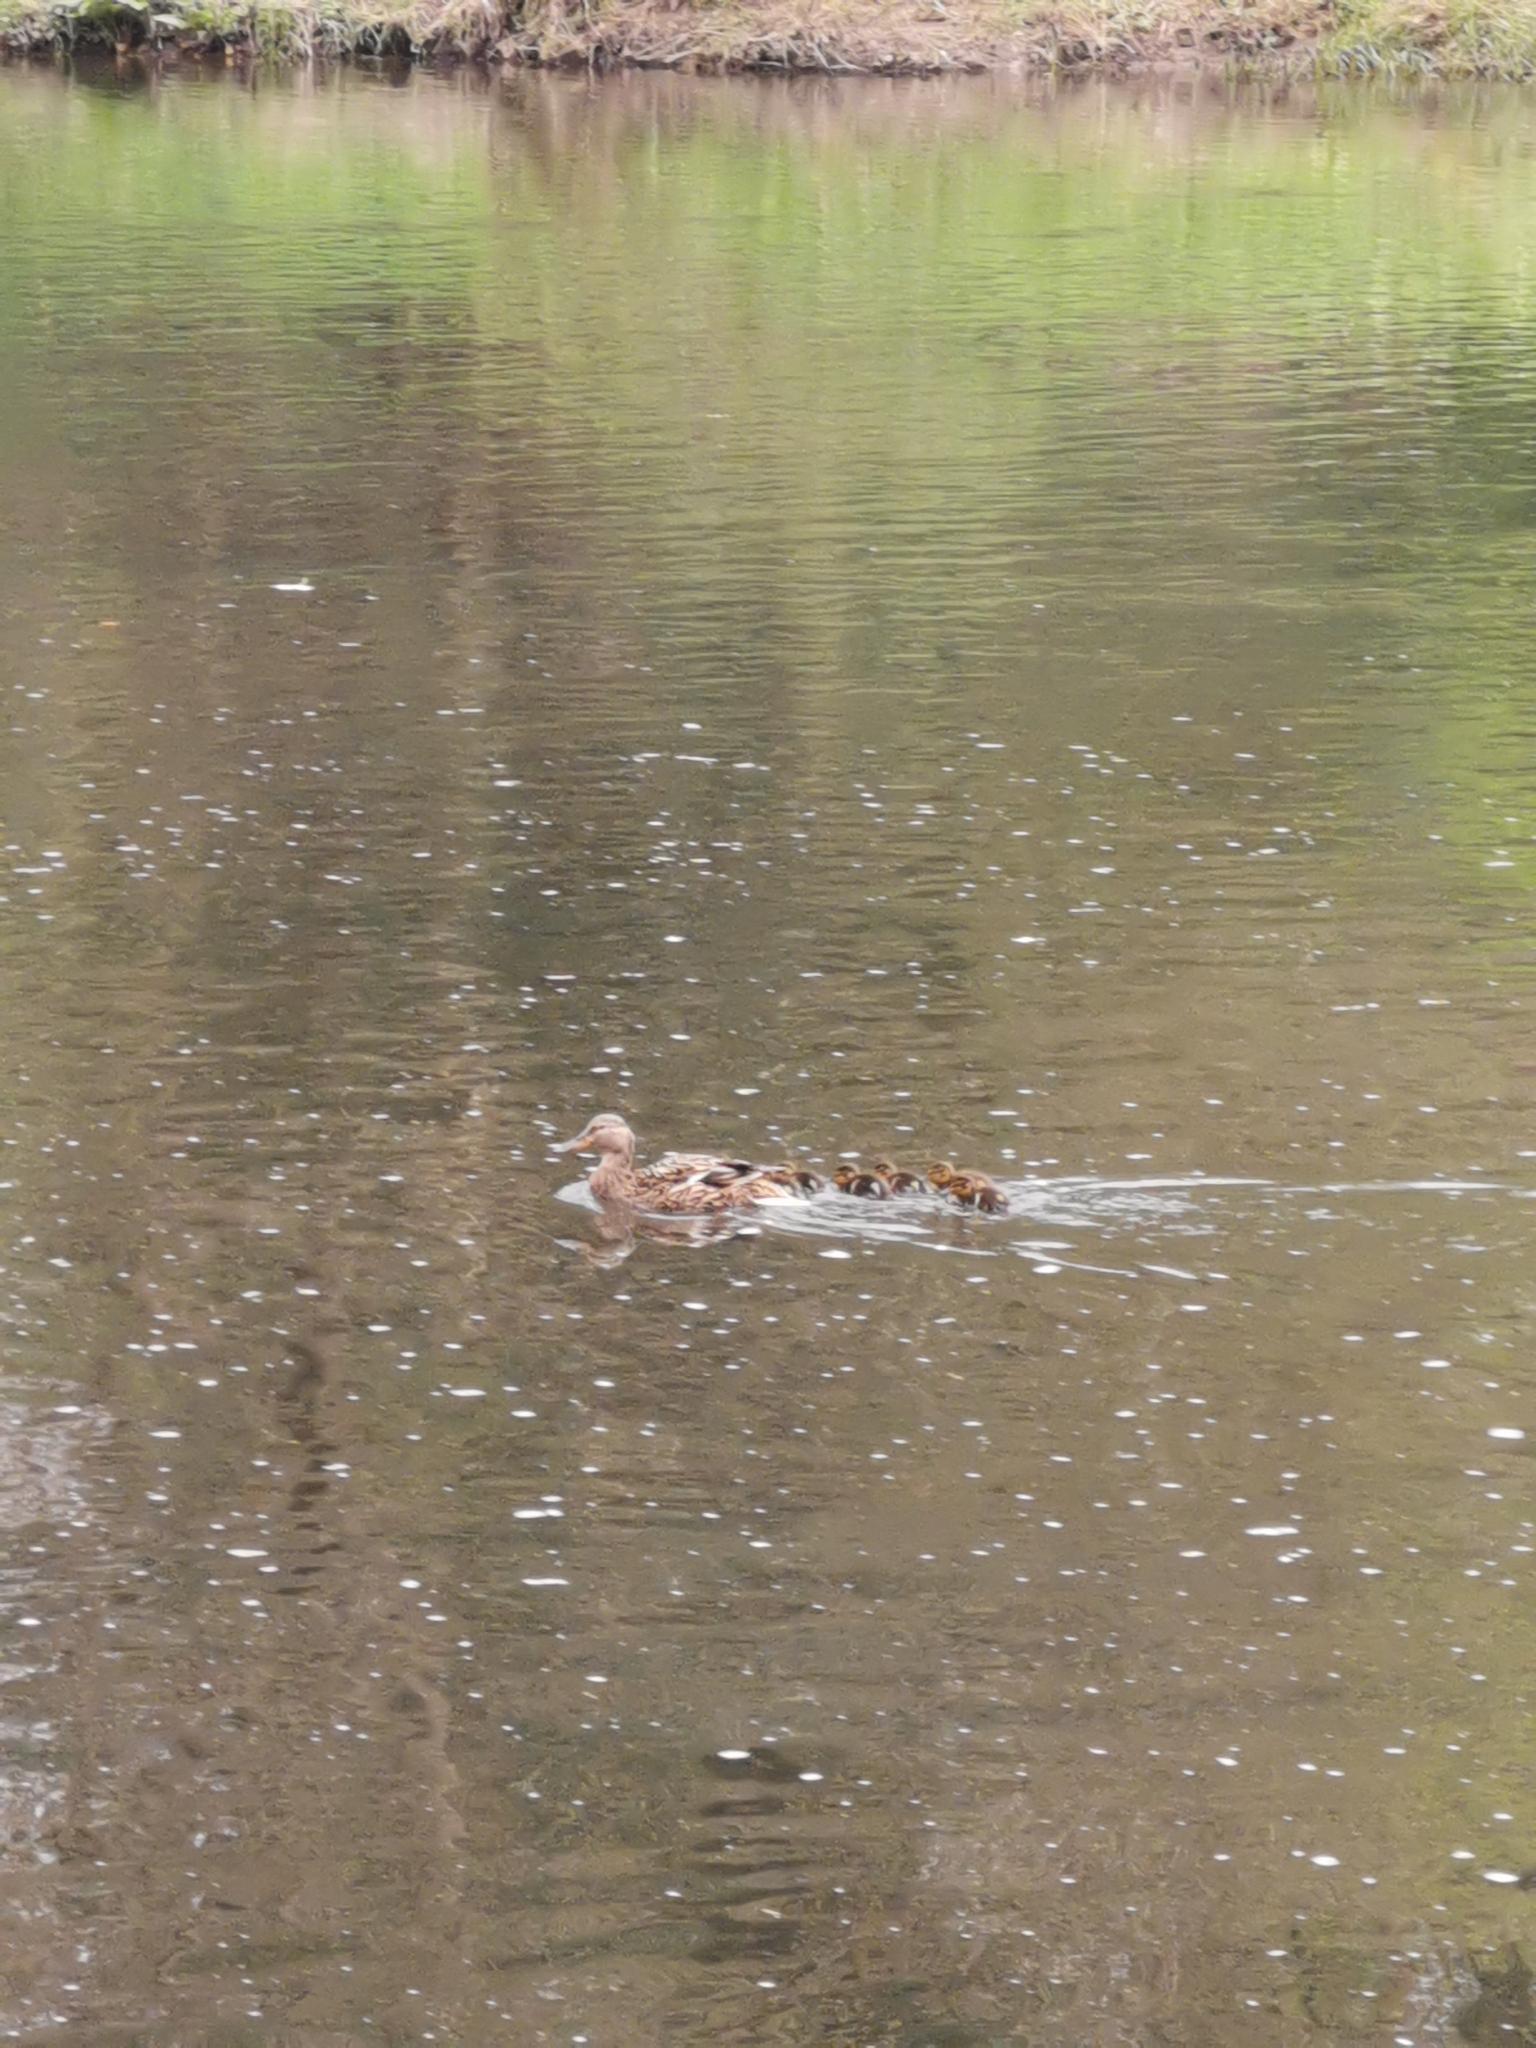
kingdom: Animalia
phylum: Chordata
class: Aves
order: Anseriformes
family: Anatidae
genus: Anas
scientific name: Anas platyrhynchos
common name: Mallard
